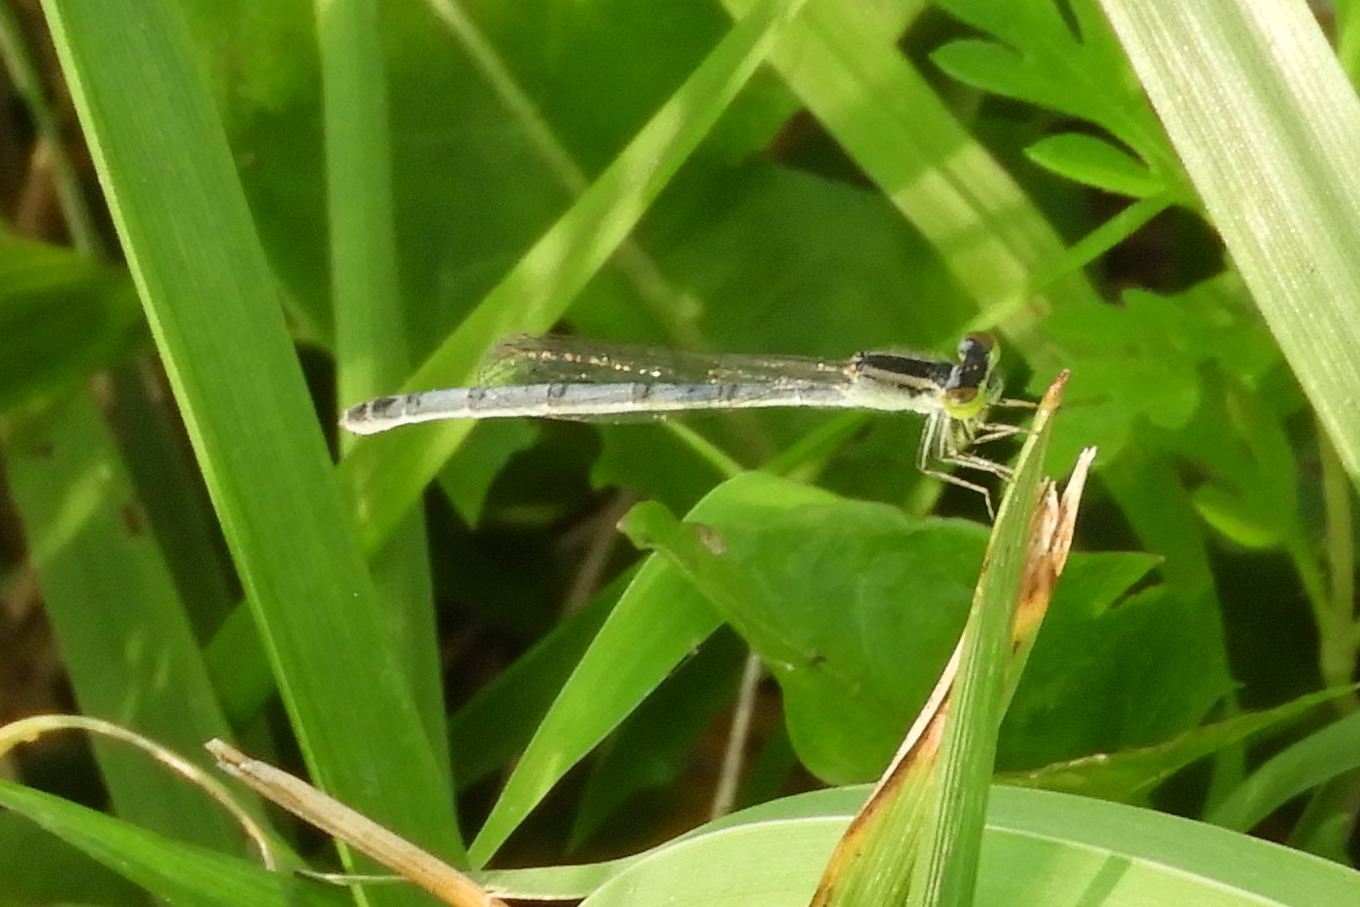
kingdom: Animalia
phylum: Arthropoda
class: Insecta
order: Odonata
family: Coenagrionidae
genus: Ischnura
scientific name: Ischnura verticalis
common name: Eastern forktail
